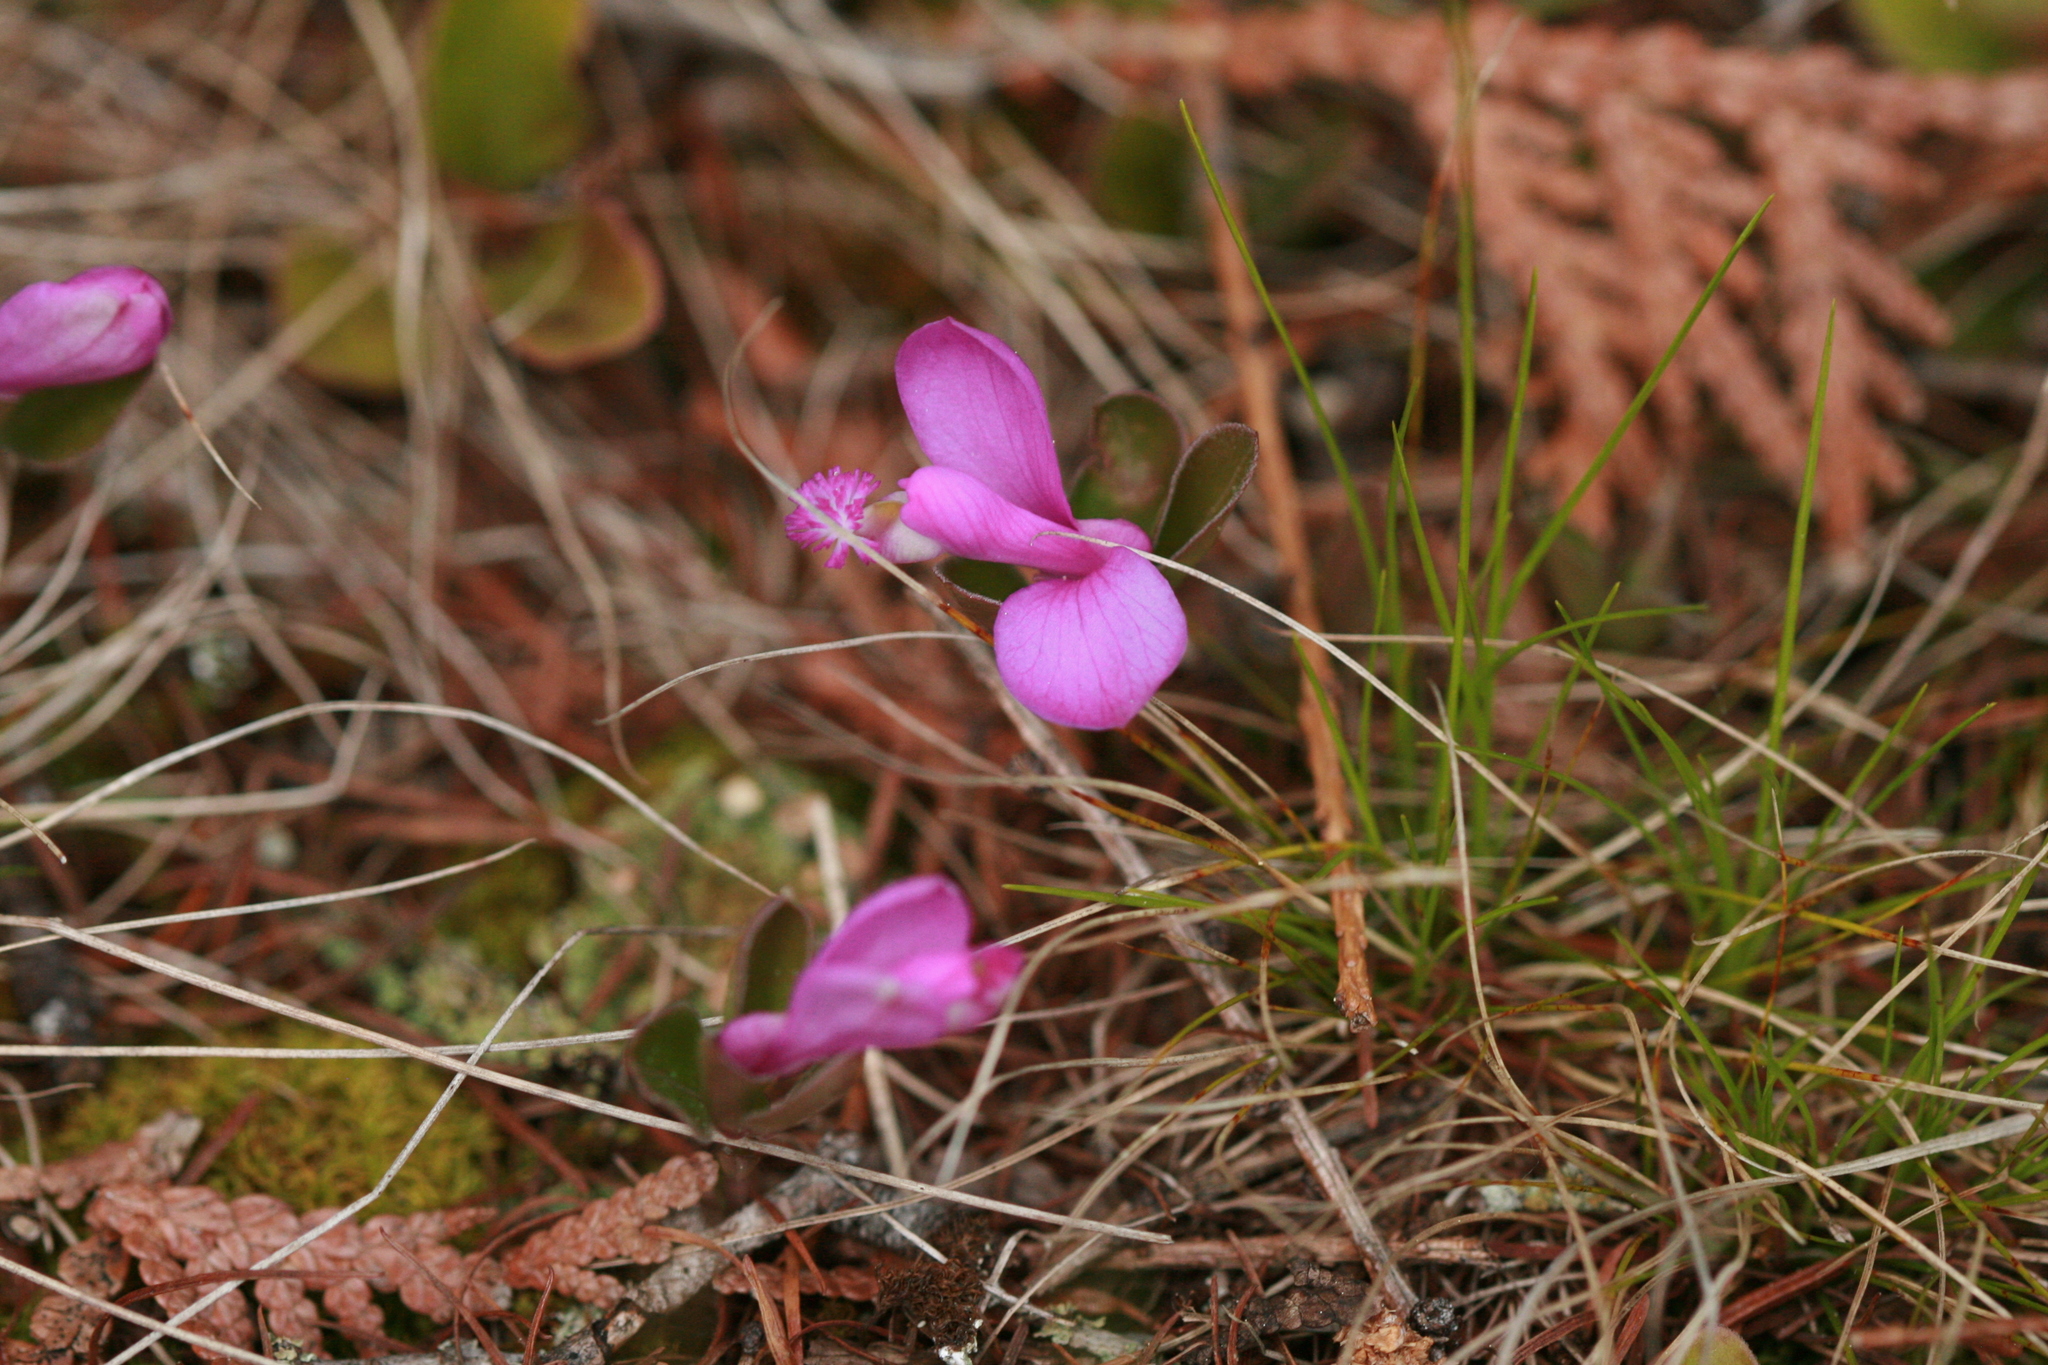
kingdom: Plantae
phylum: Tracheophyta
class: Magnoliopsida
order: Fabales
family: Polygalaceae
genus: Polygaloides
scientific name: Polygaloides paucifolia
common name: Bird-on-the-wing
